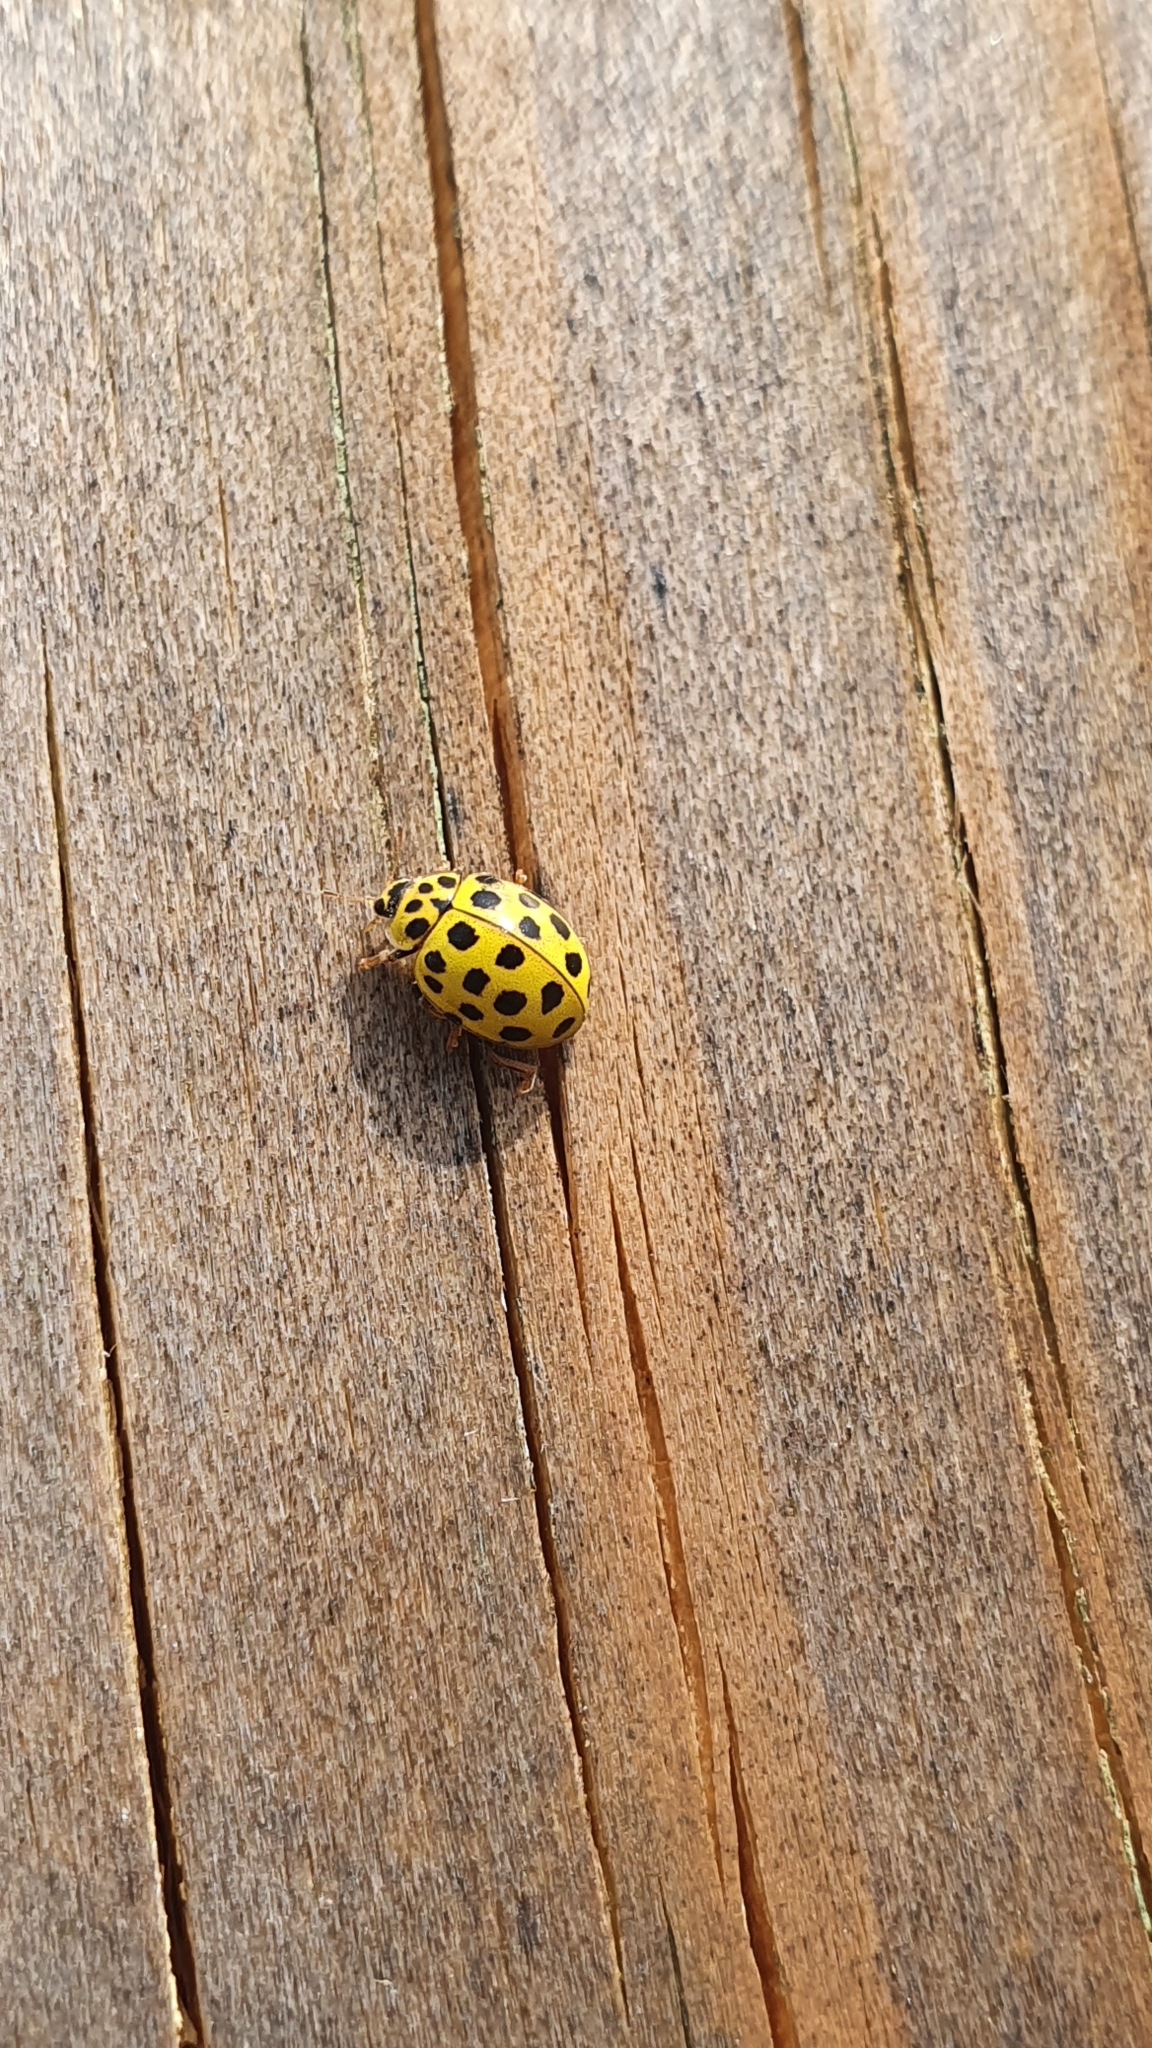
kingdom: Animalia
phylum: Arthropoda
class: Insecta
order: Coleoptera
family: Coccinellidae
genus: Psyllobora
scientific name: Psyllobora vigintiduopunctata
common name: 22-spot ladybird
